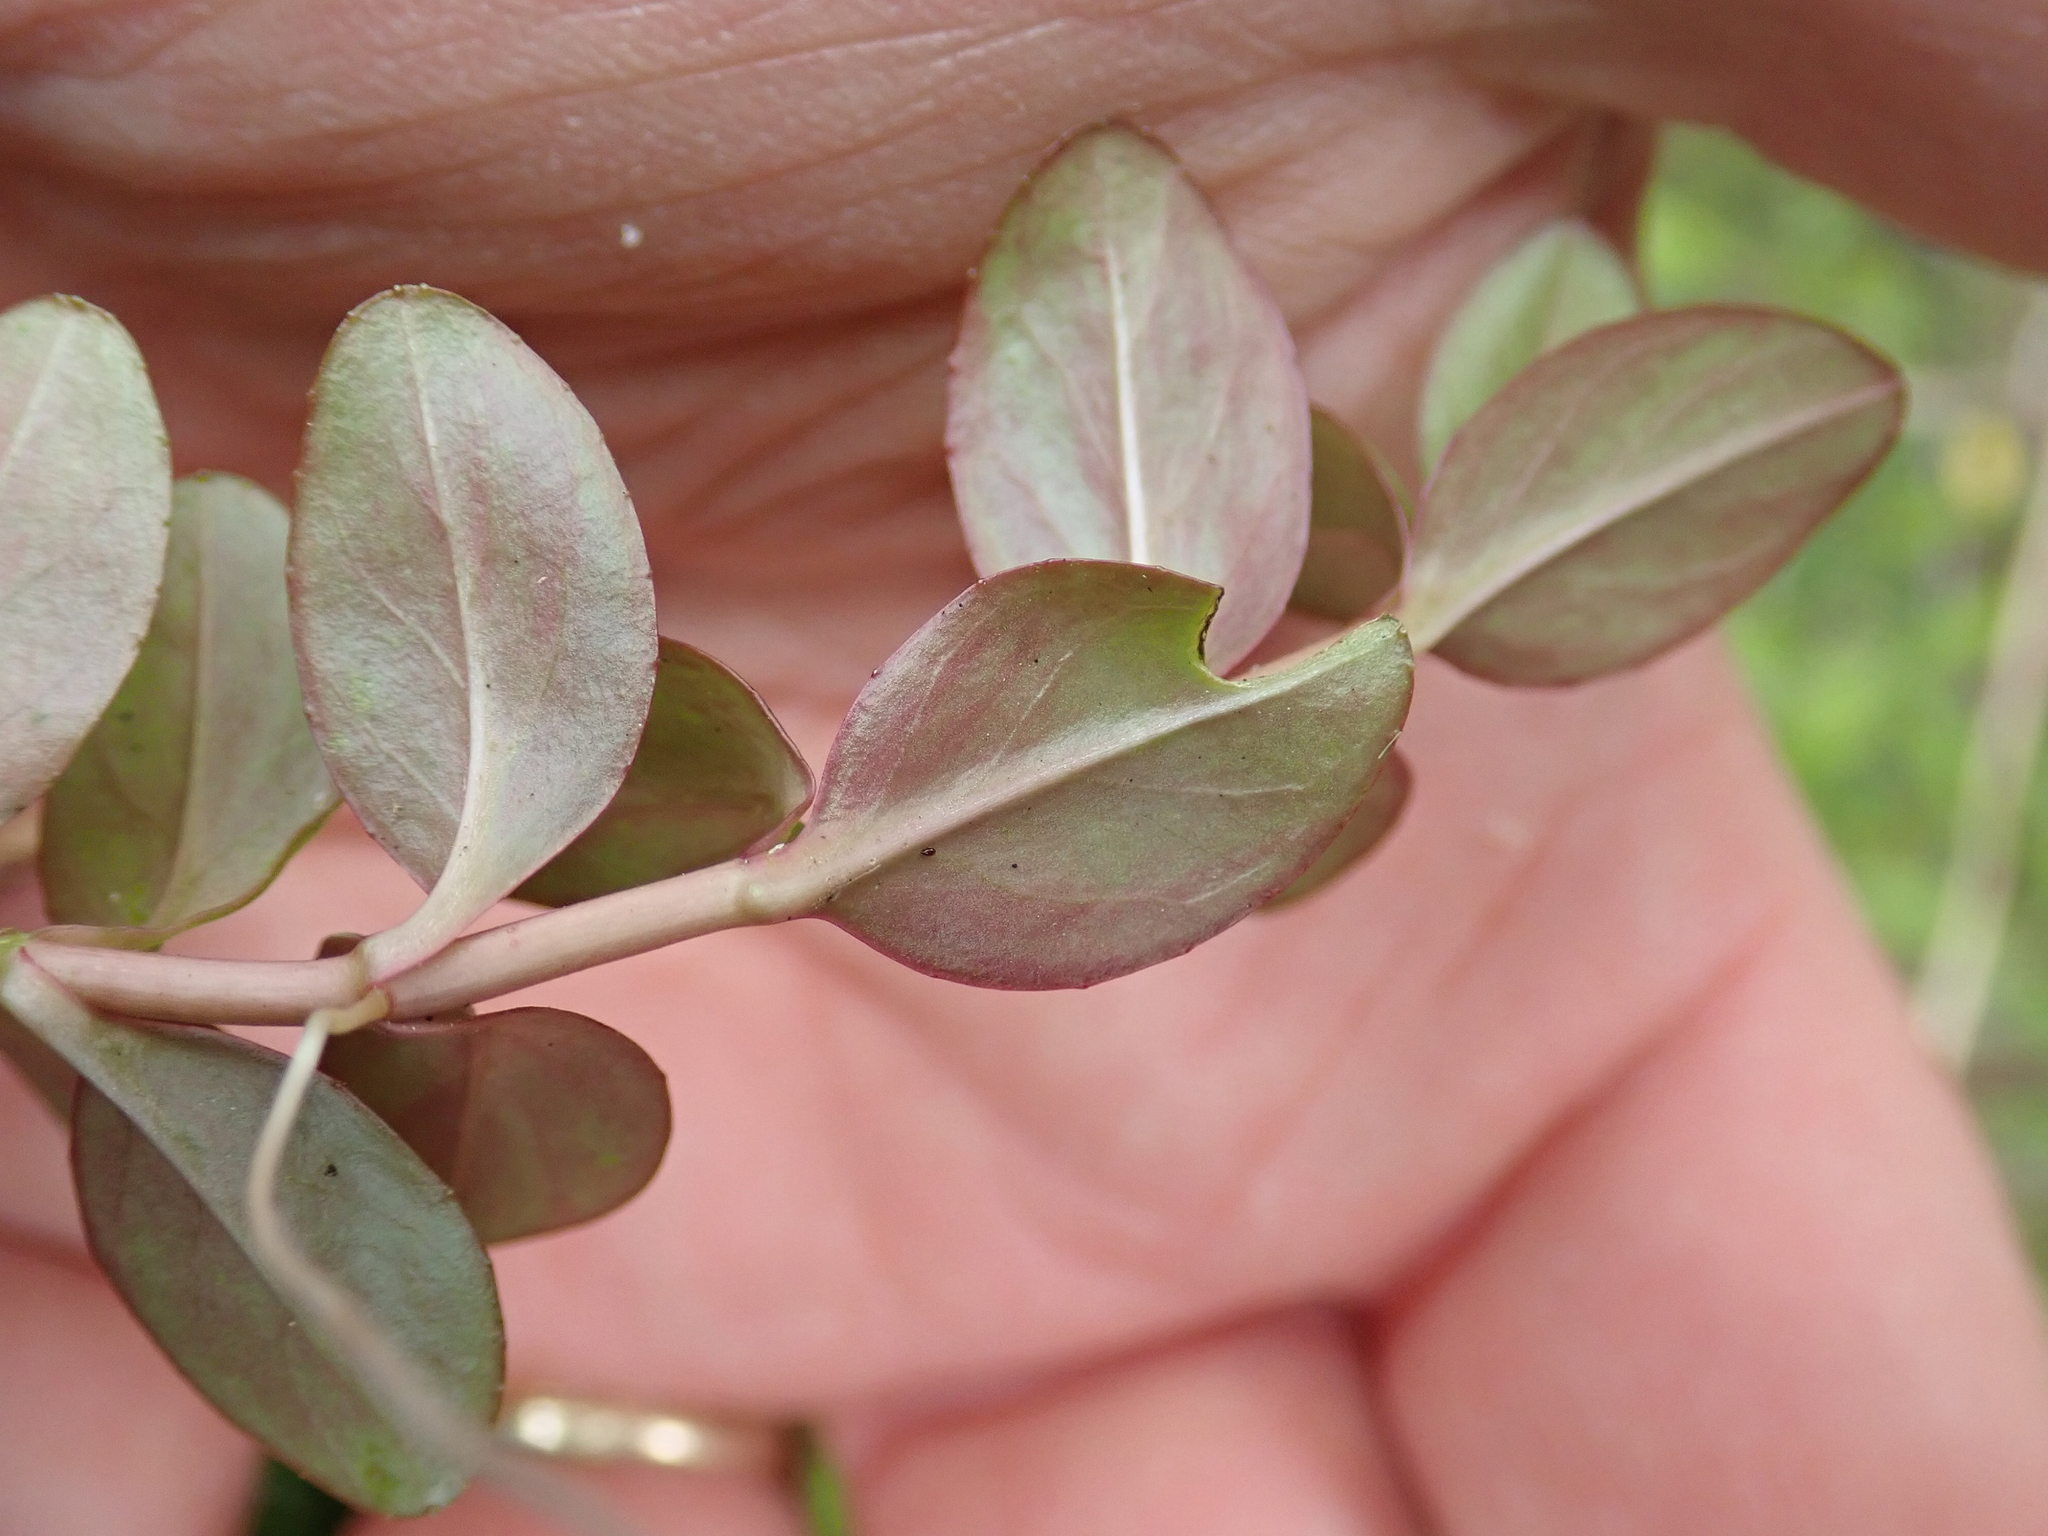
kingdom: Plantae
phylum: Tracheophyta
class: Magnoliopsida
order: Myrtales
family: Onagraceae
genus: Epilobium
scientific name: Epilobium chionanthum
